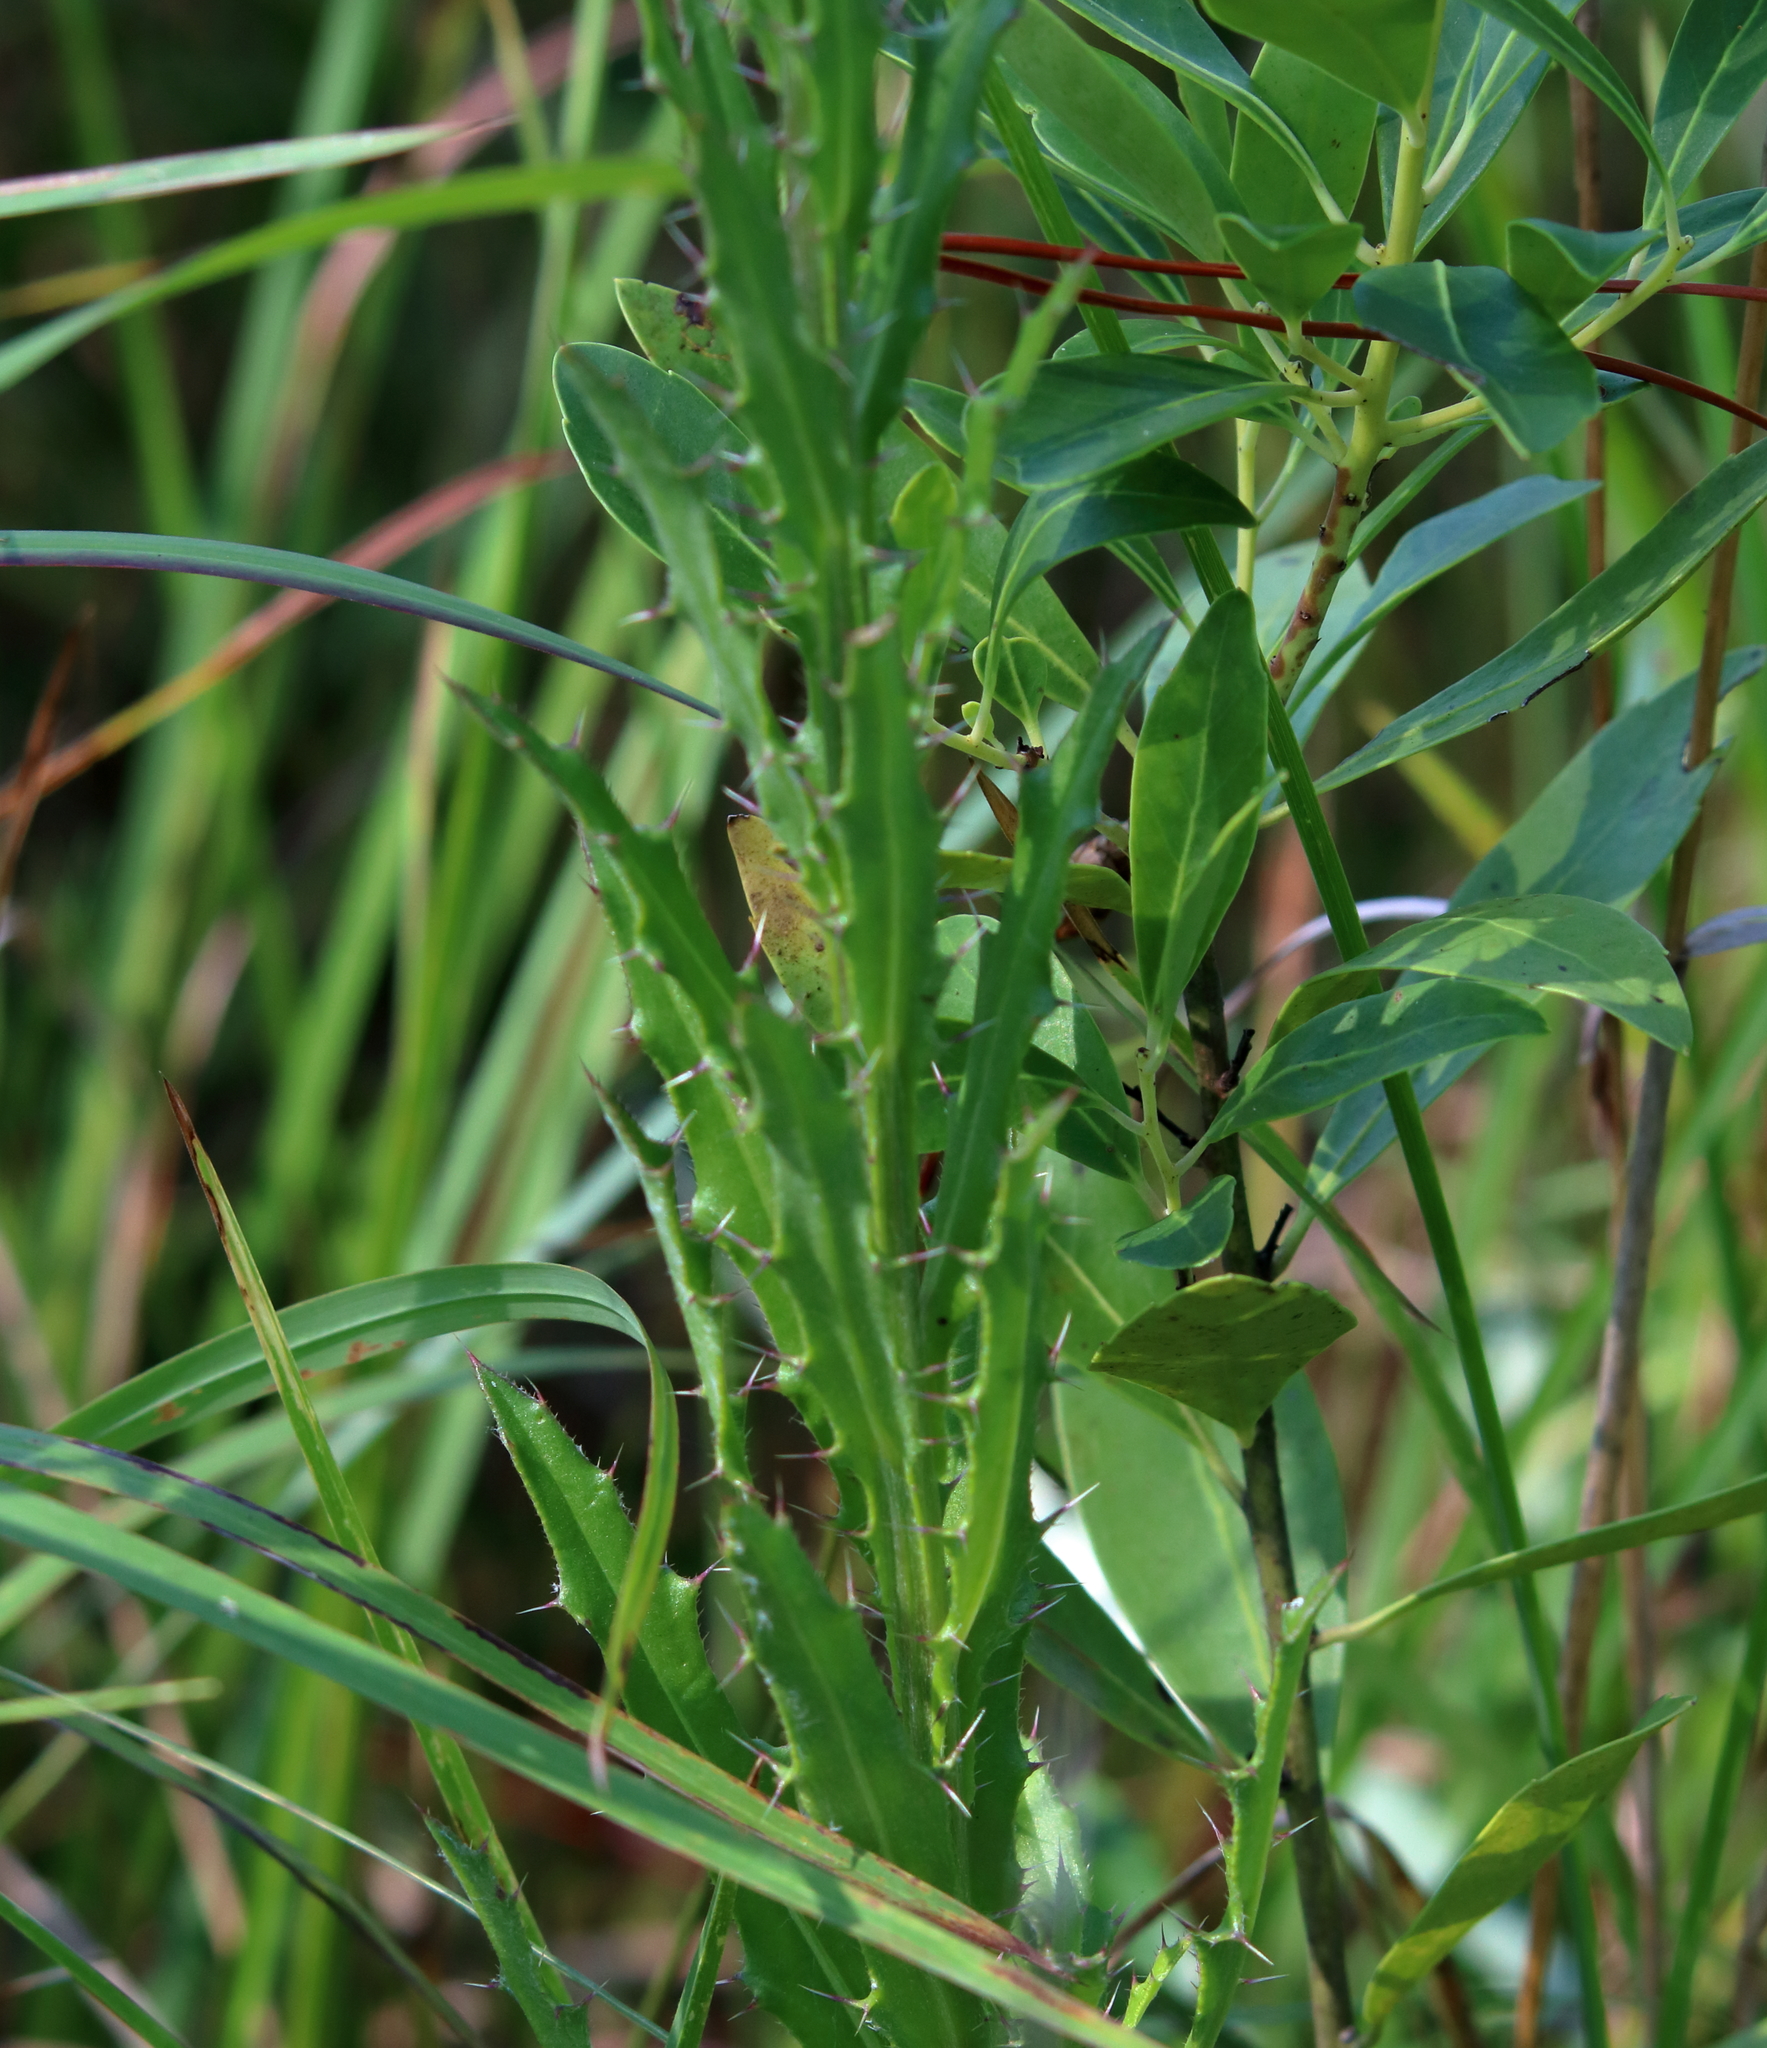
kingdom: Plantae
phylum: Tracheophyta
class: Magnoliopsida
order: Asterales
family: Asteraceae
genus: Cirsium
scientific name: Cirsium lecontei
